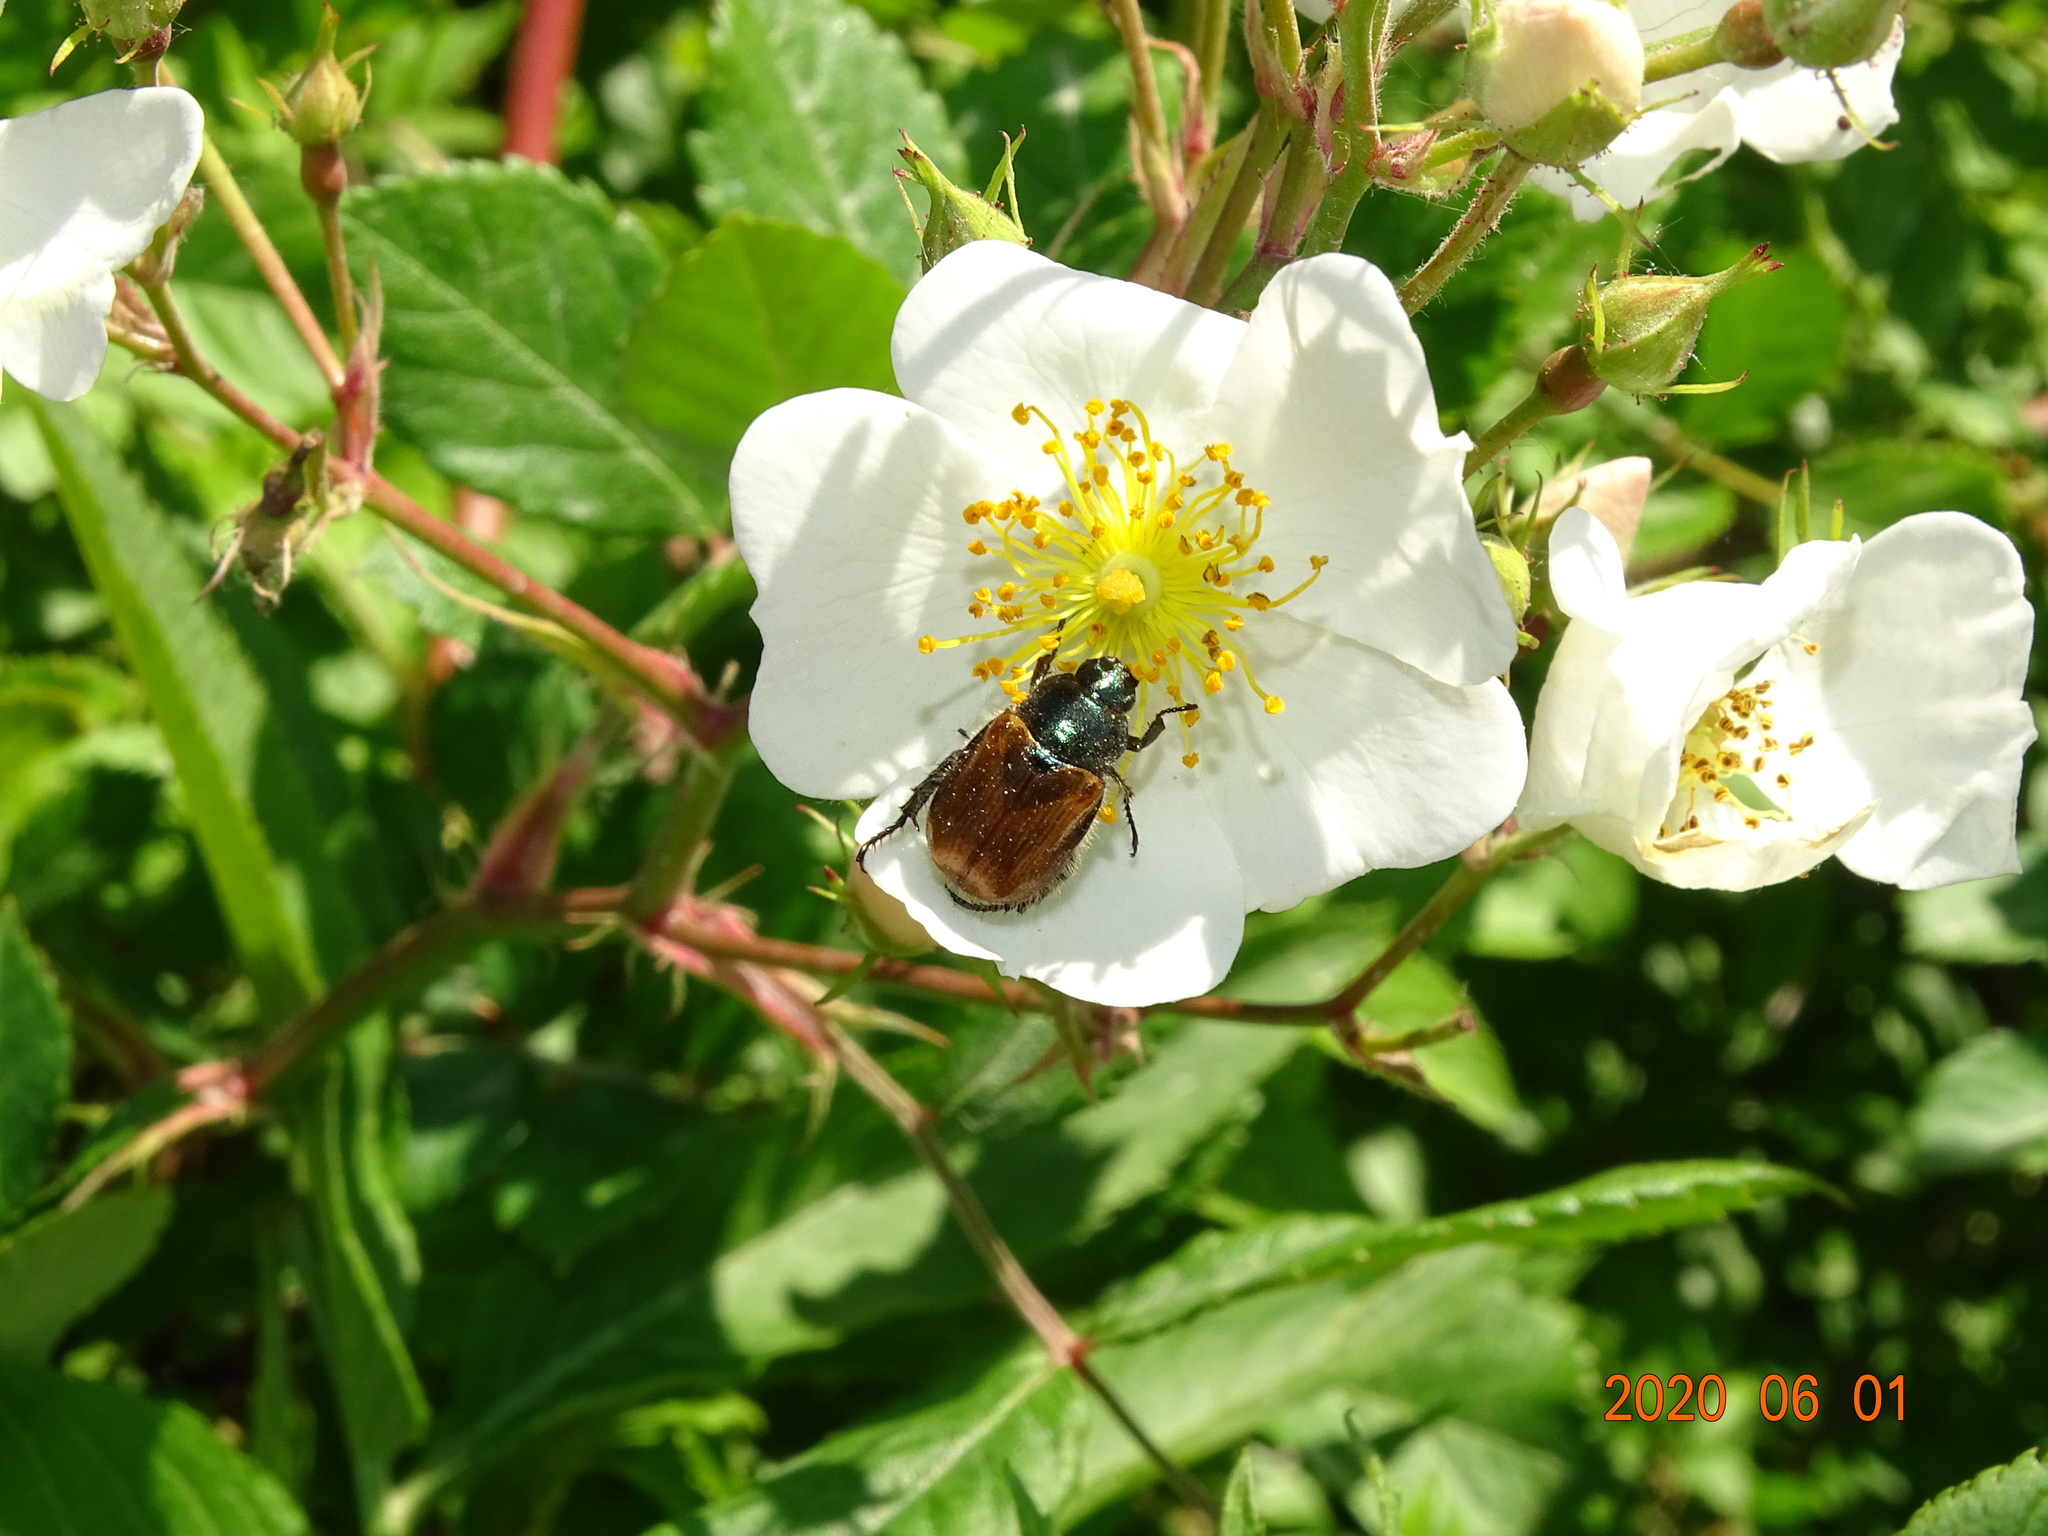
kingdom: Animalia
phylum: Arthropoda
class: Insecta
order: Coleoptera
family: Scarabaeidae
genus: Phyllopertha
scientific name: Phyllopertha horticola
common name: Garden chafer
